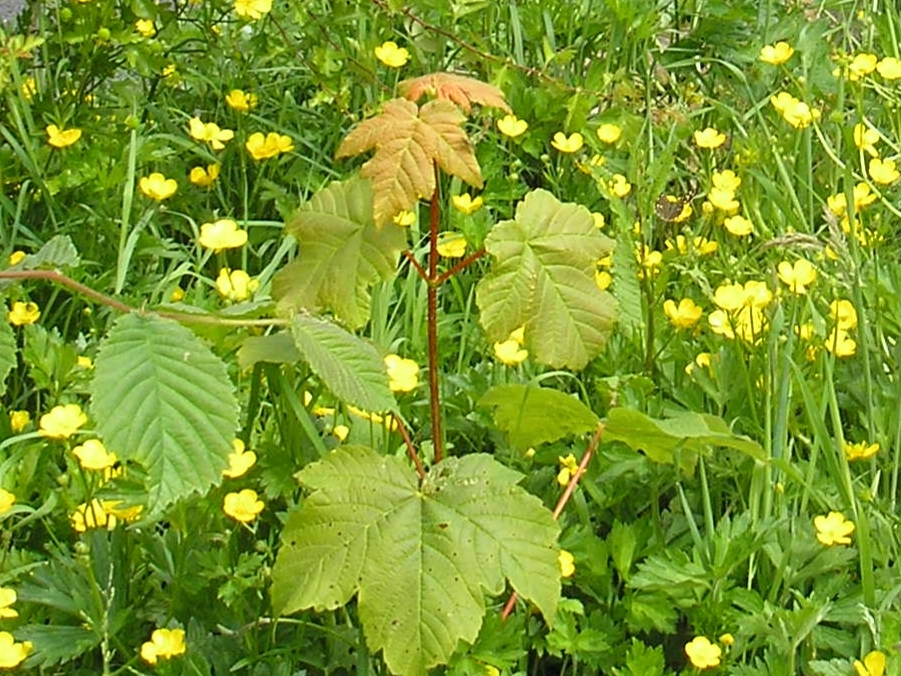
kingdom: Plantae
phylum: Tracheophyta
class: Magnoliopsida
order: Sapindales
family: Sapindaceae
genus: Acer
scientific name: Acer pseudoplatanus
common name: Sycamore
